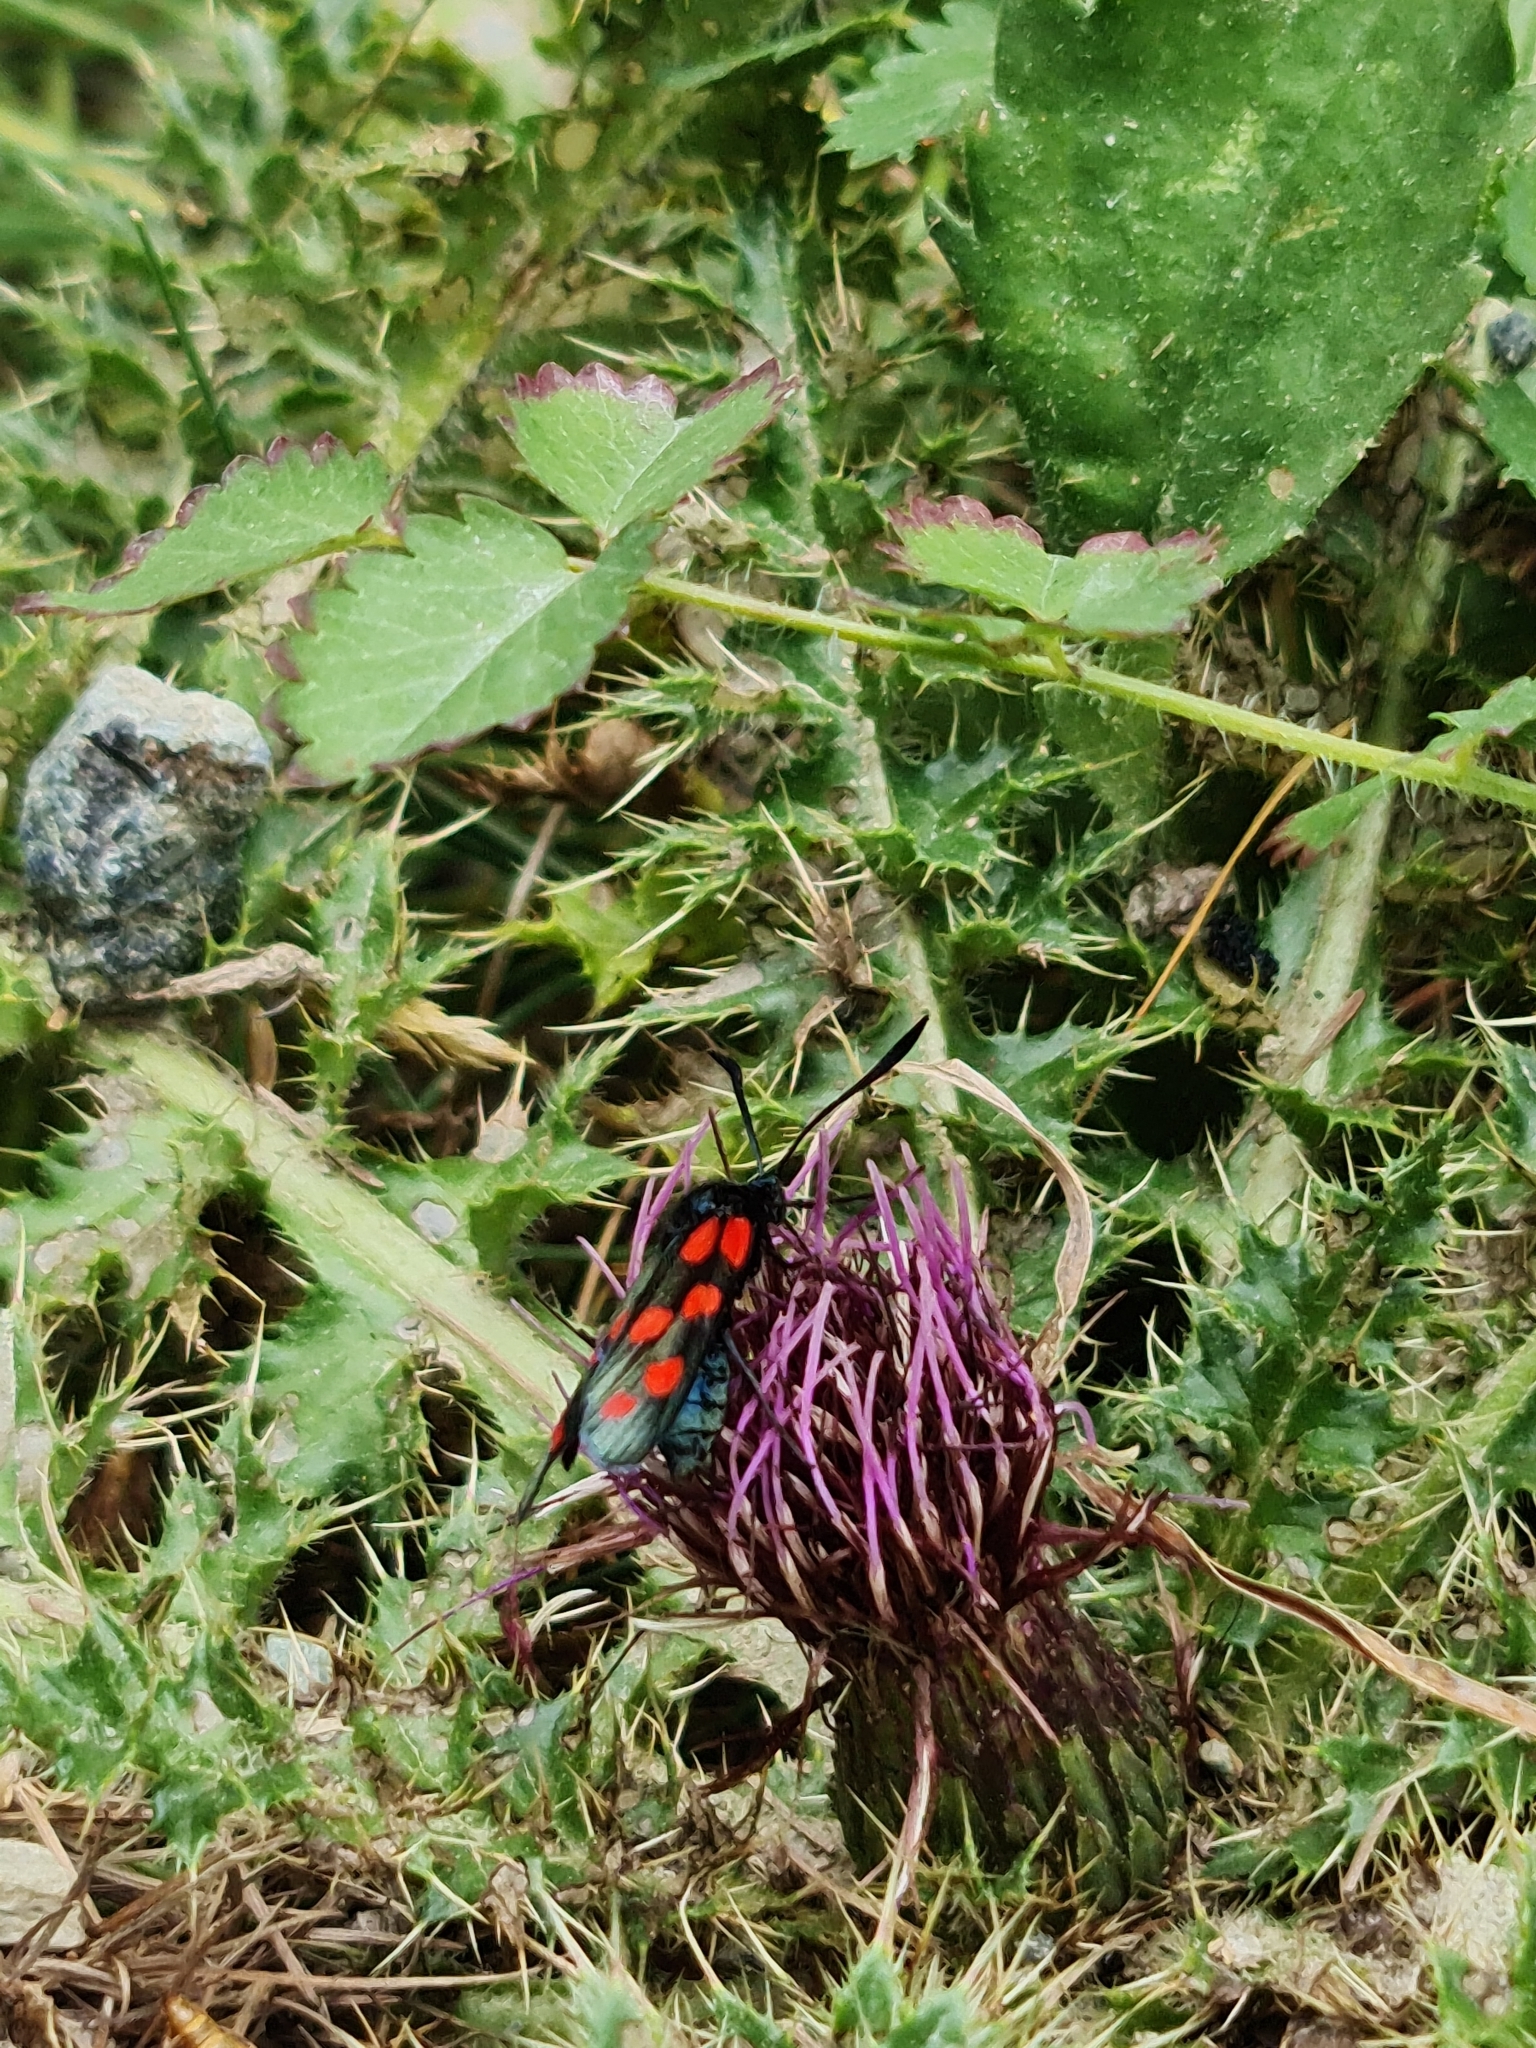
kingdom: Animalia
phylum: Arthropoda
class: Insecta
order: Lepidoptera
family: Zygaenidae
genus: Zygaena
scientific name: Zygaena transalpina
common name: Southern six spot burnet
